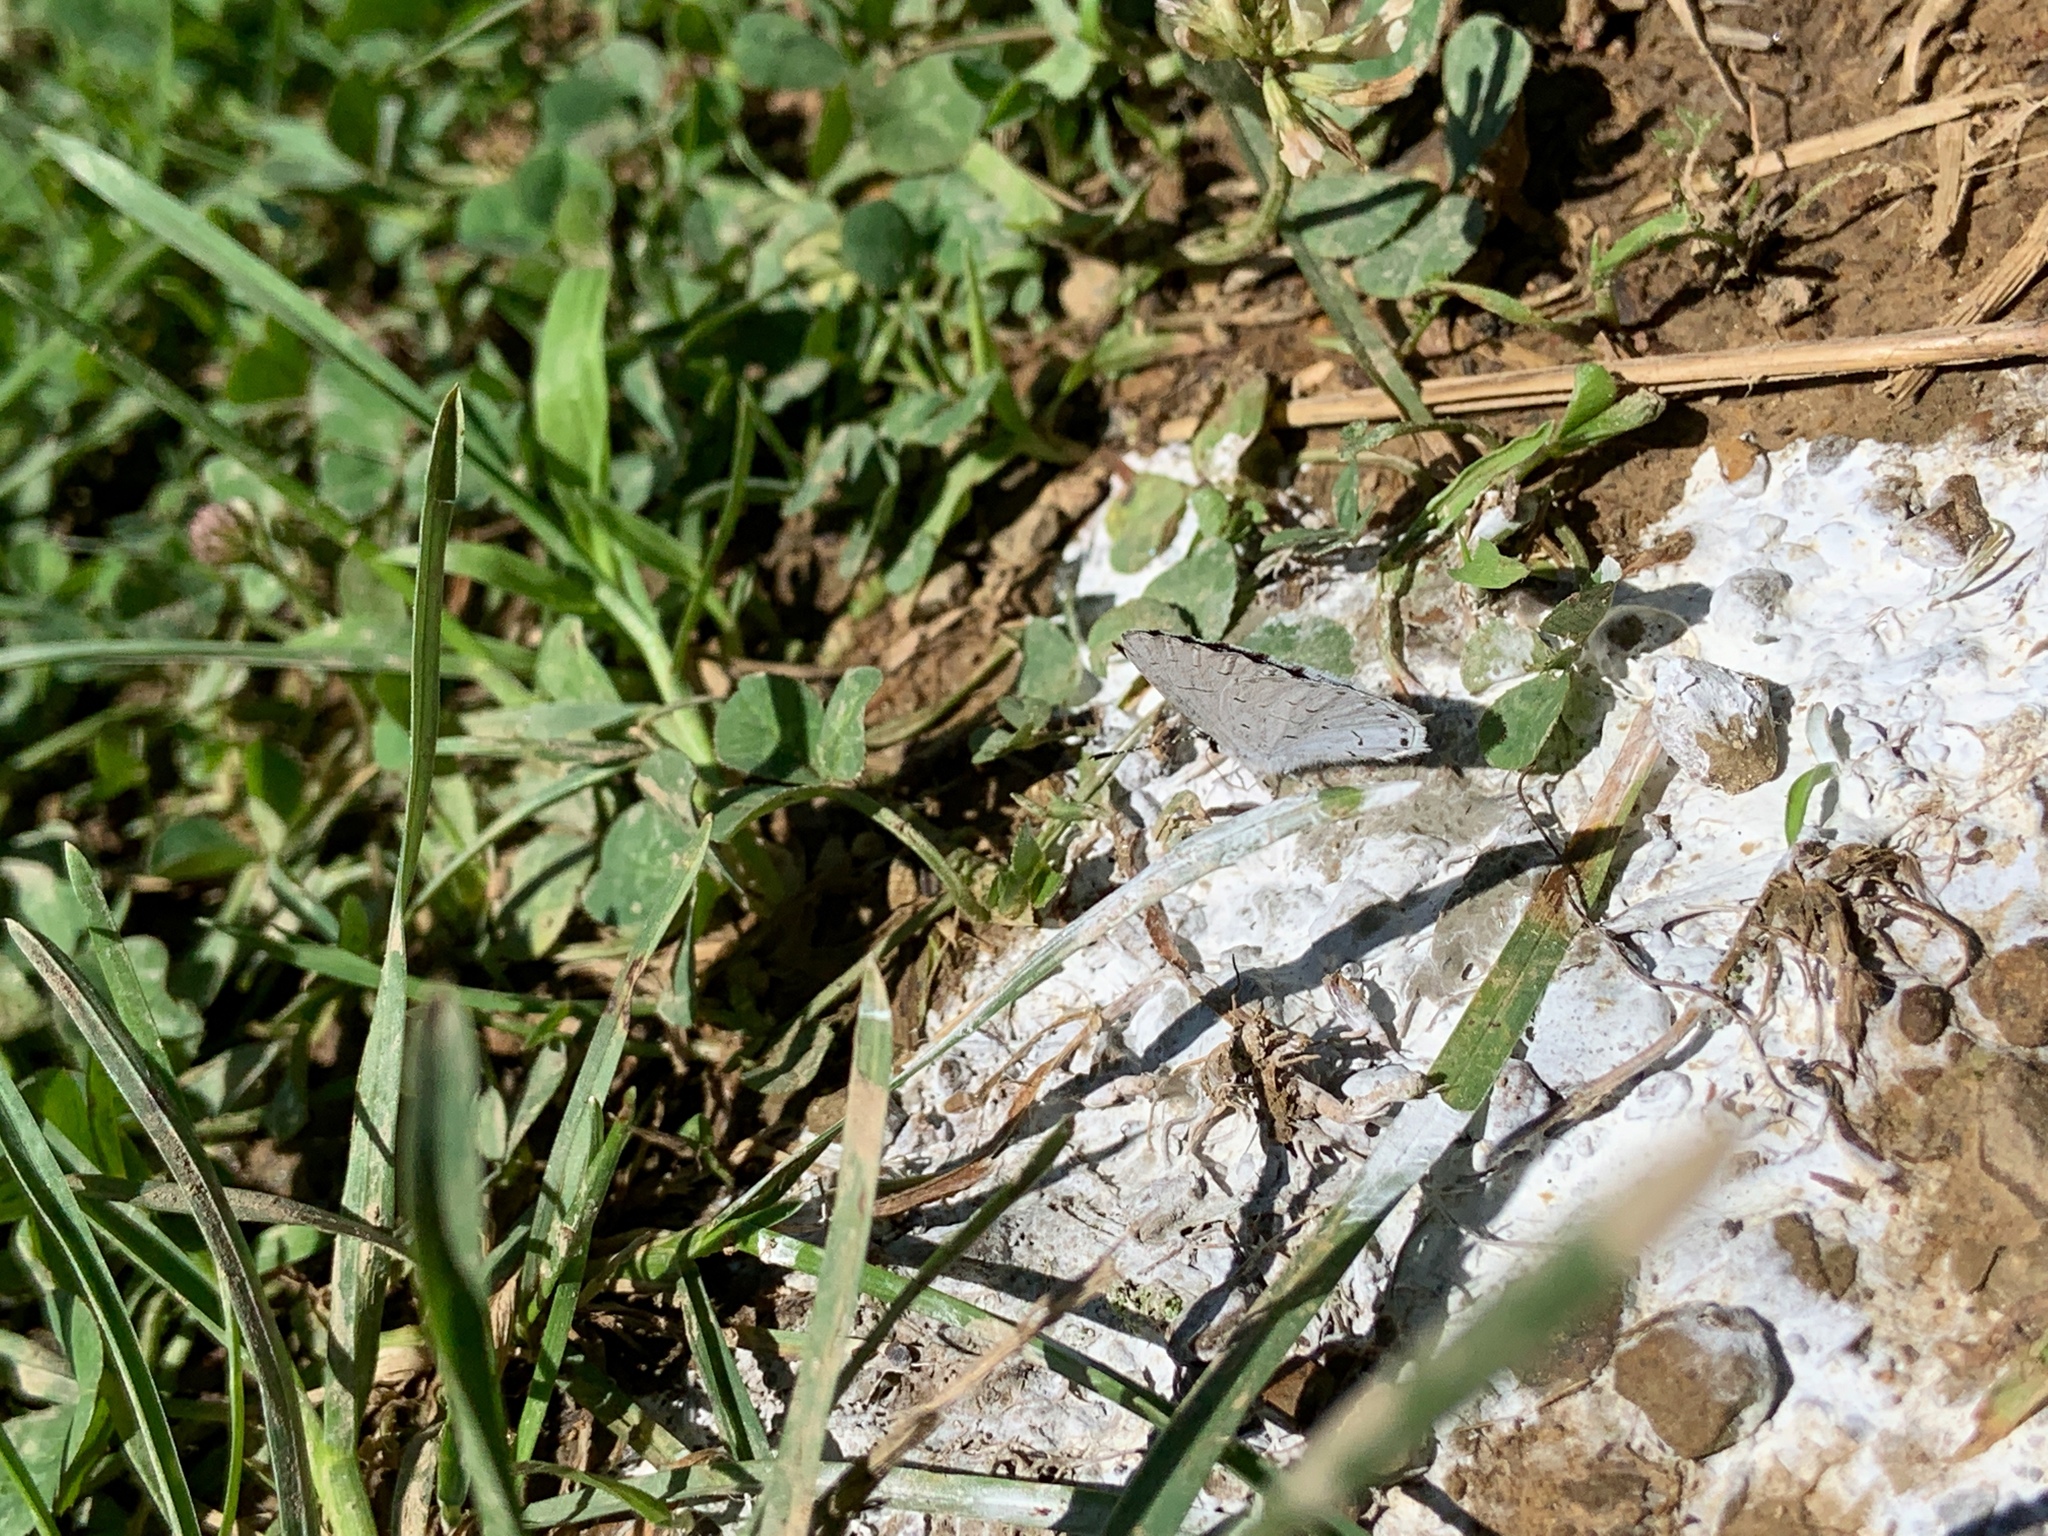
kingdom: Animalia
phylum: Arthropoda
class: Insecta
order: Lepidoptera
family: Lycaenidae
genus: Cyaniris
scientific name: Cyaniris neglecta
